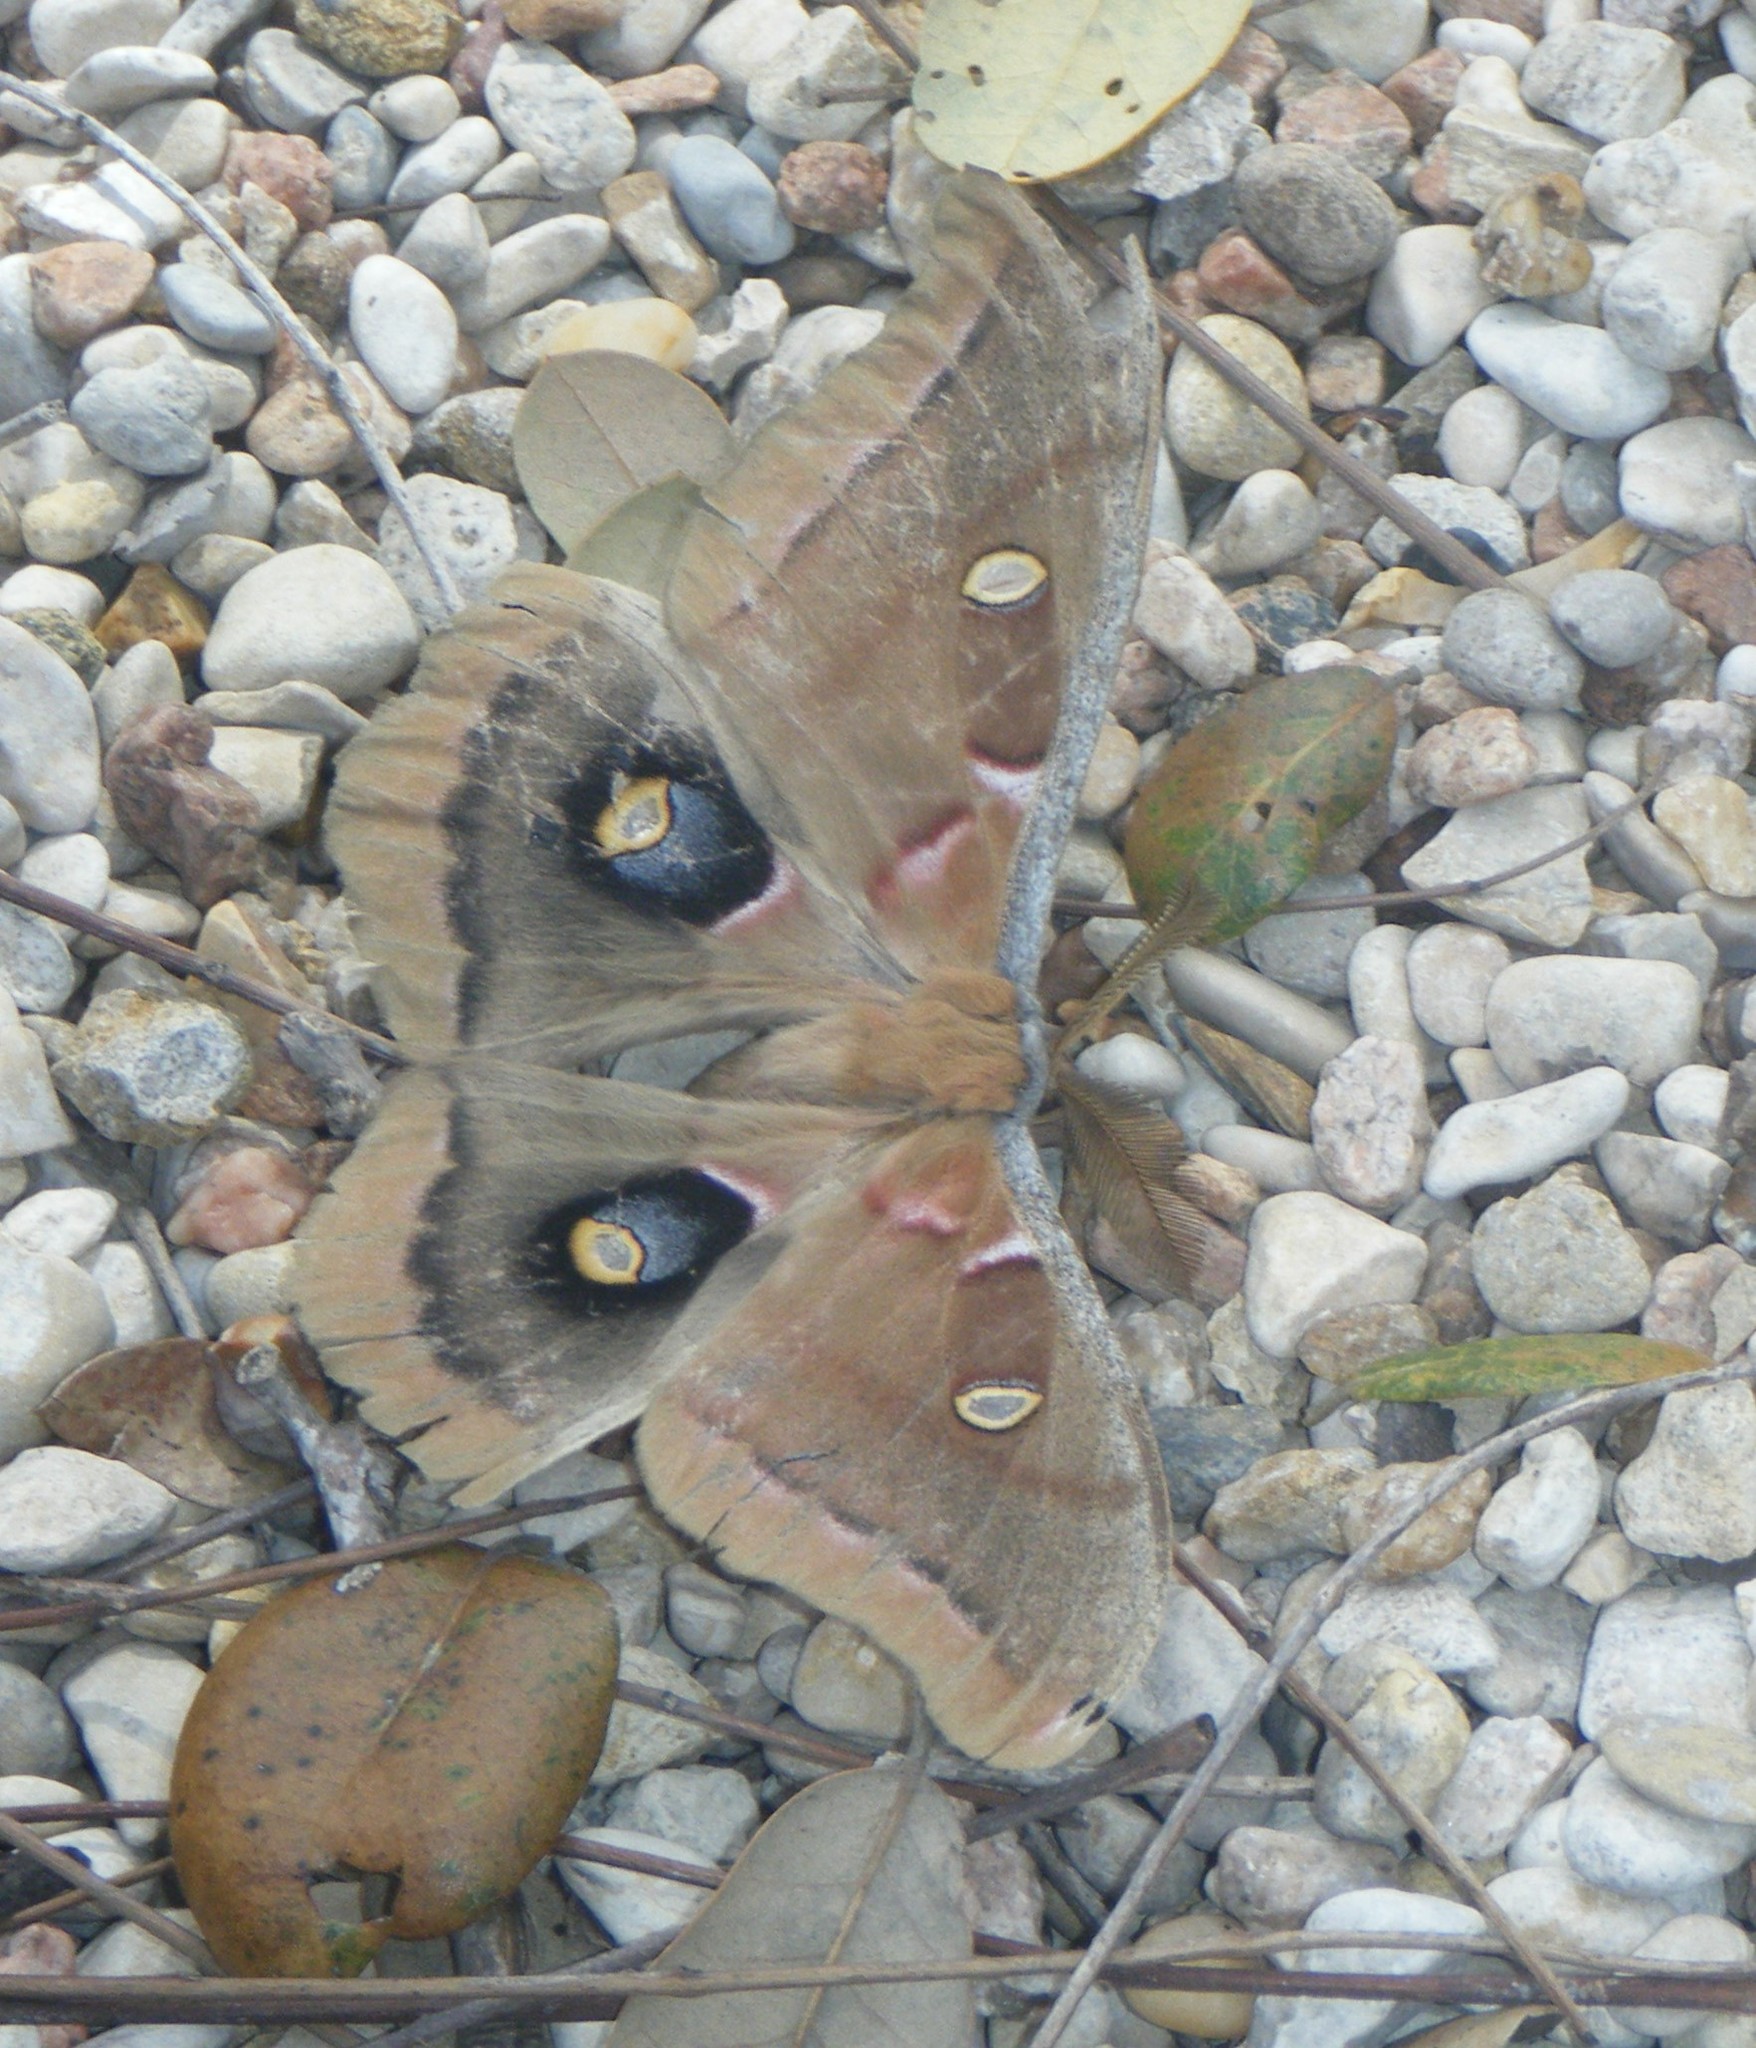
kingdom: Animalia
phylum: Arthropoda
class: Insecta
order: Lepidoptera
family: Saturniidae
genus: Antheraea
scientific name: Antheraea polyphemus
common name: Polyphemus moth
